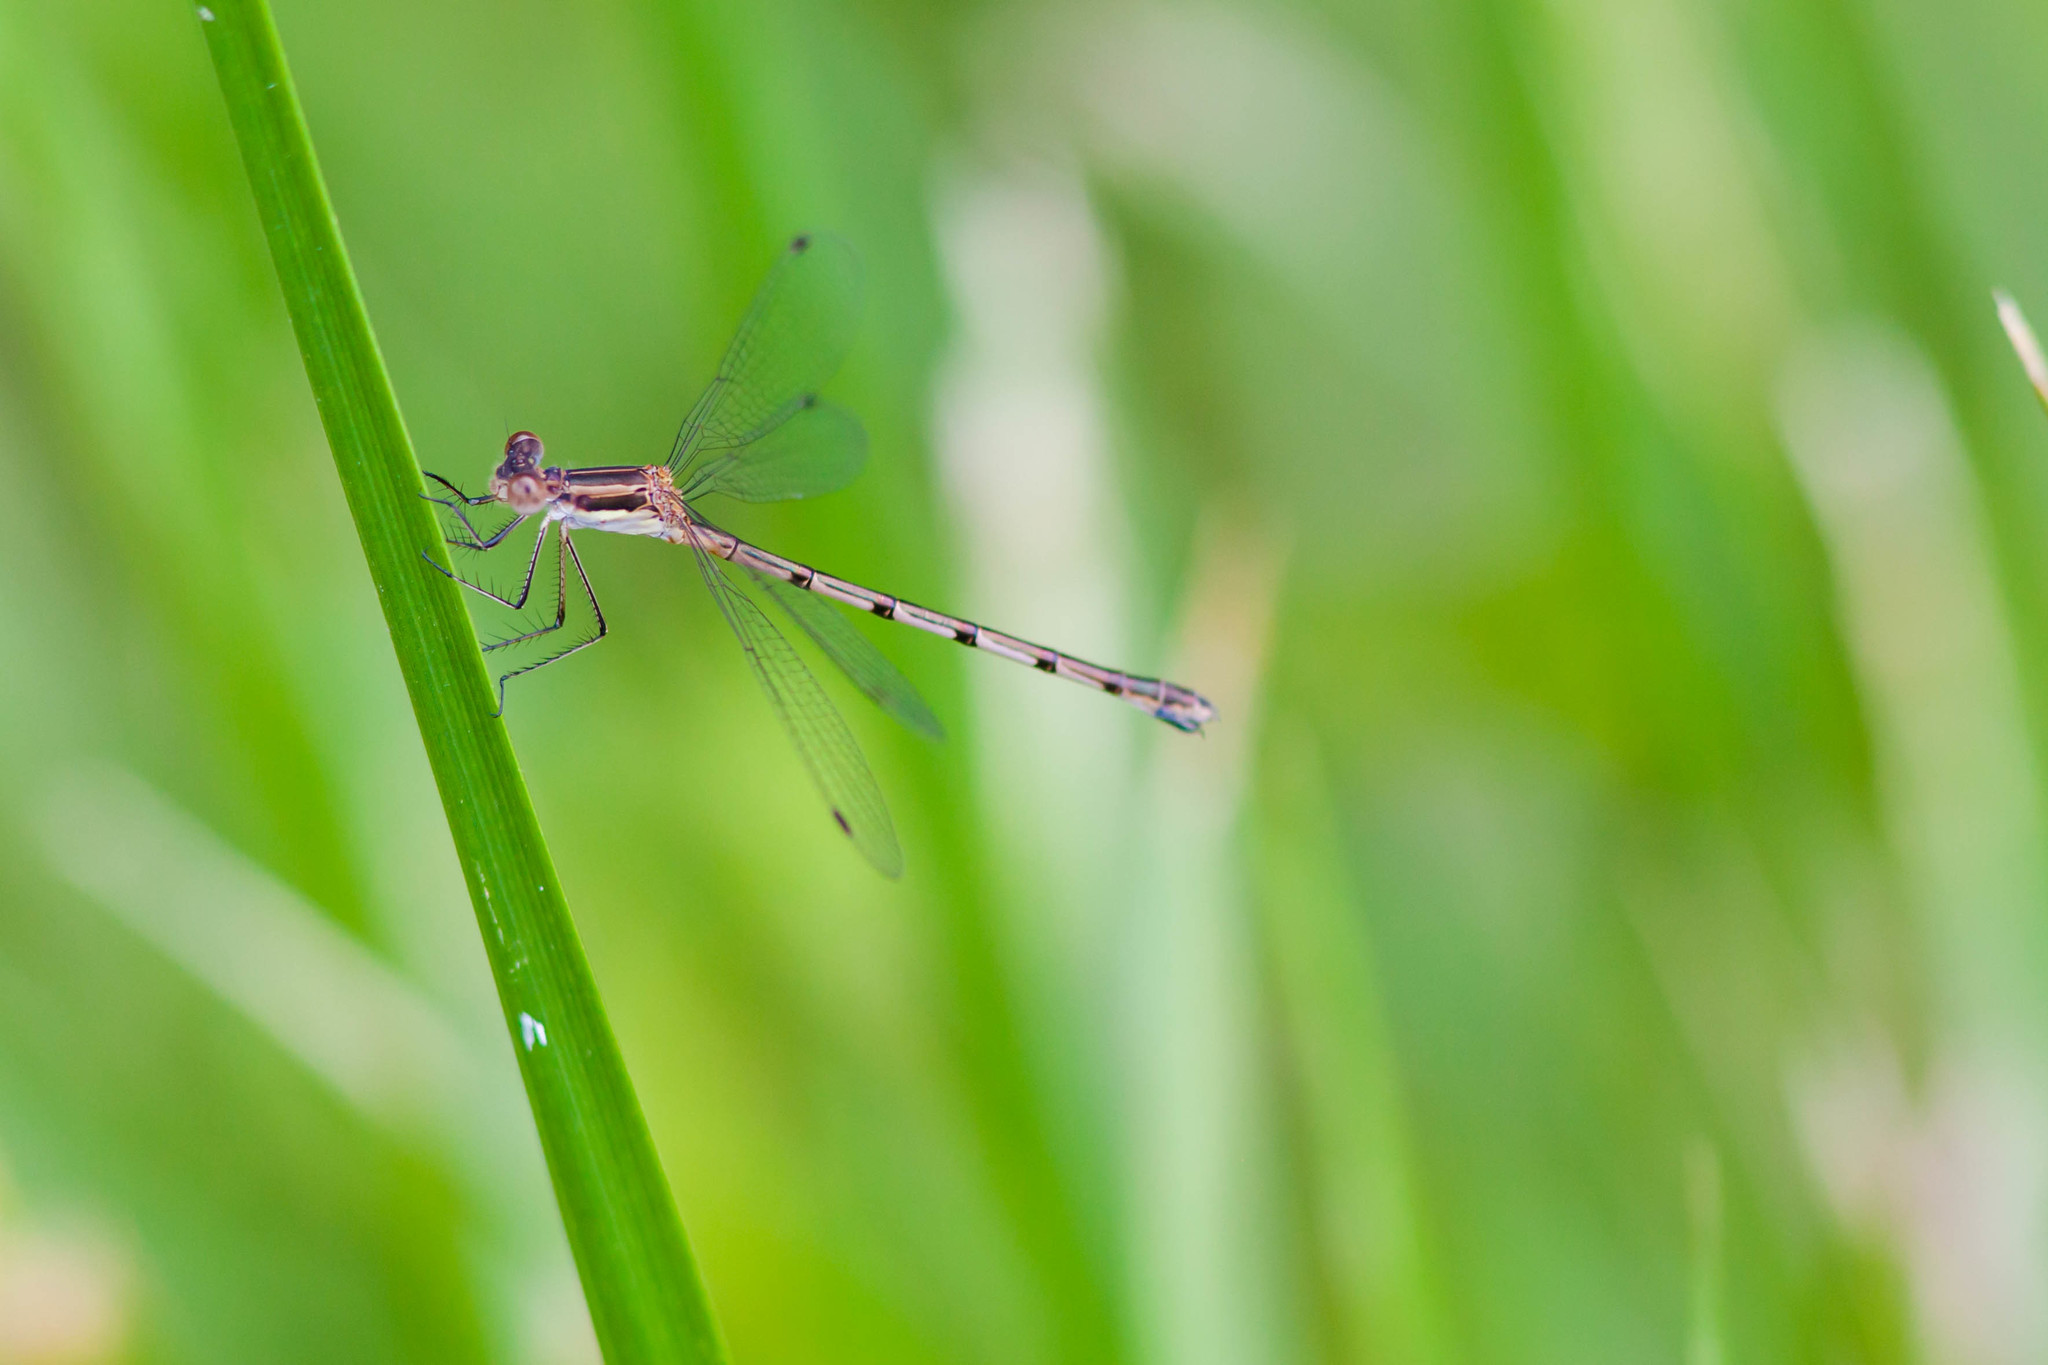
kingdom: Animalia
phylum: Arthropoda
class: Insecta
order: Odonata
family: Lestidae
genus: Lestes
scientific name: Lestes australis
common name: Southern spreadwing
